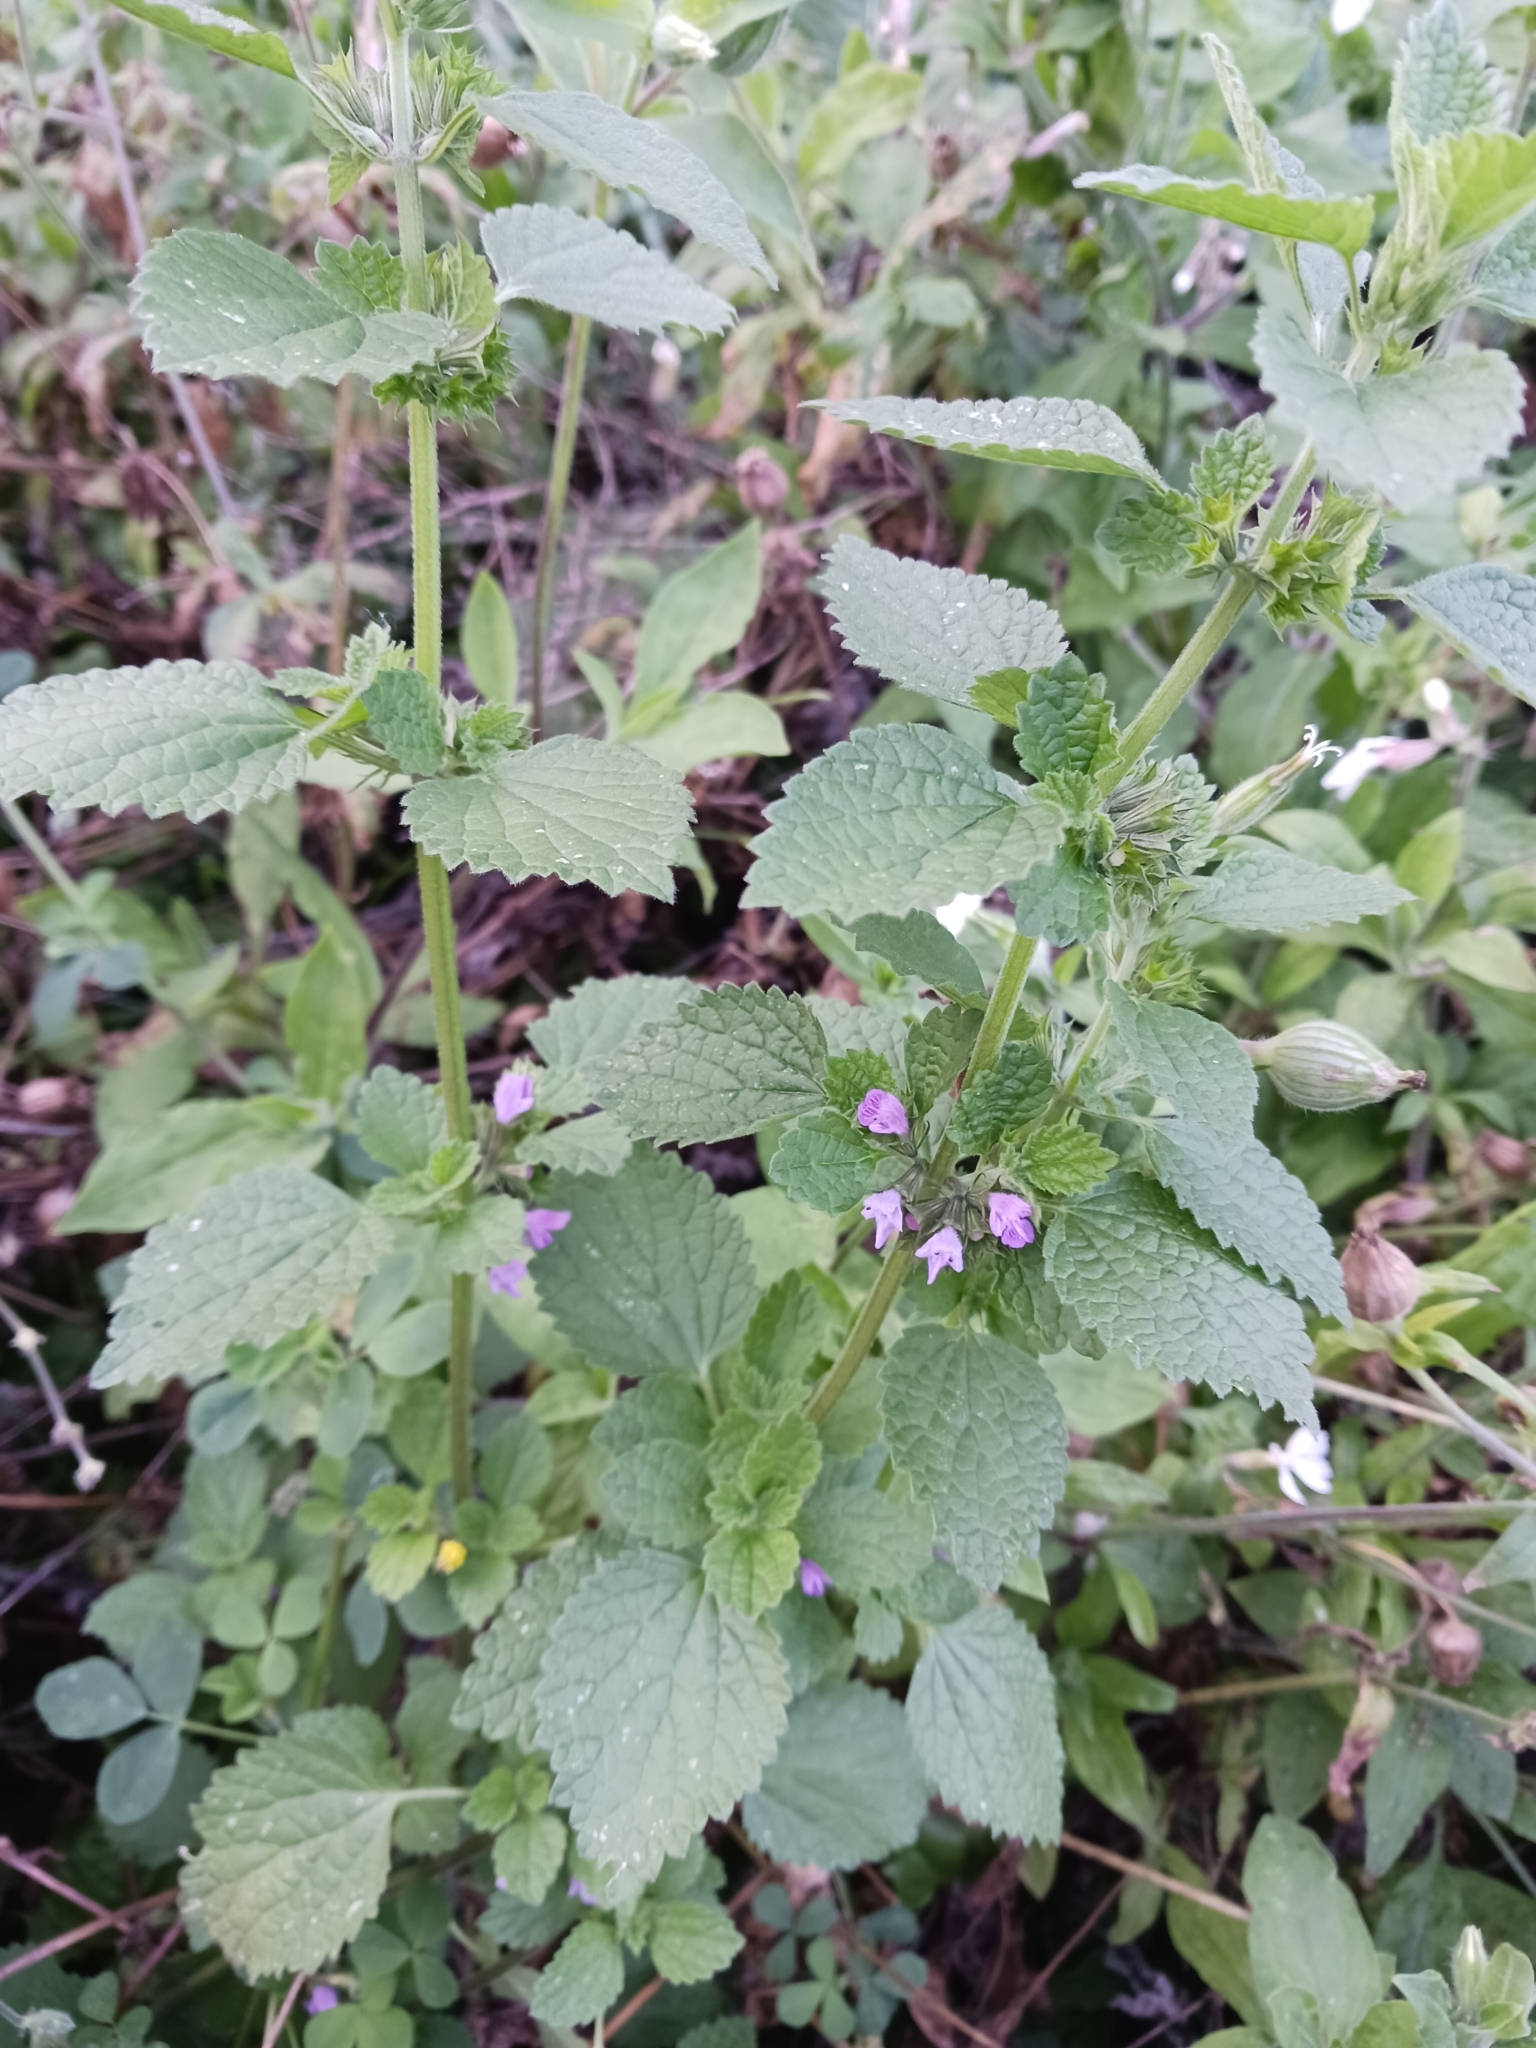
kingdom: Plantae
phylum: Tracheophyta
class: Magnoliopsida
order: Lamiales
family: Lamiaceae
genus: Ballota
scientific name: Ballota nigra
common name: Black horehound
